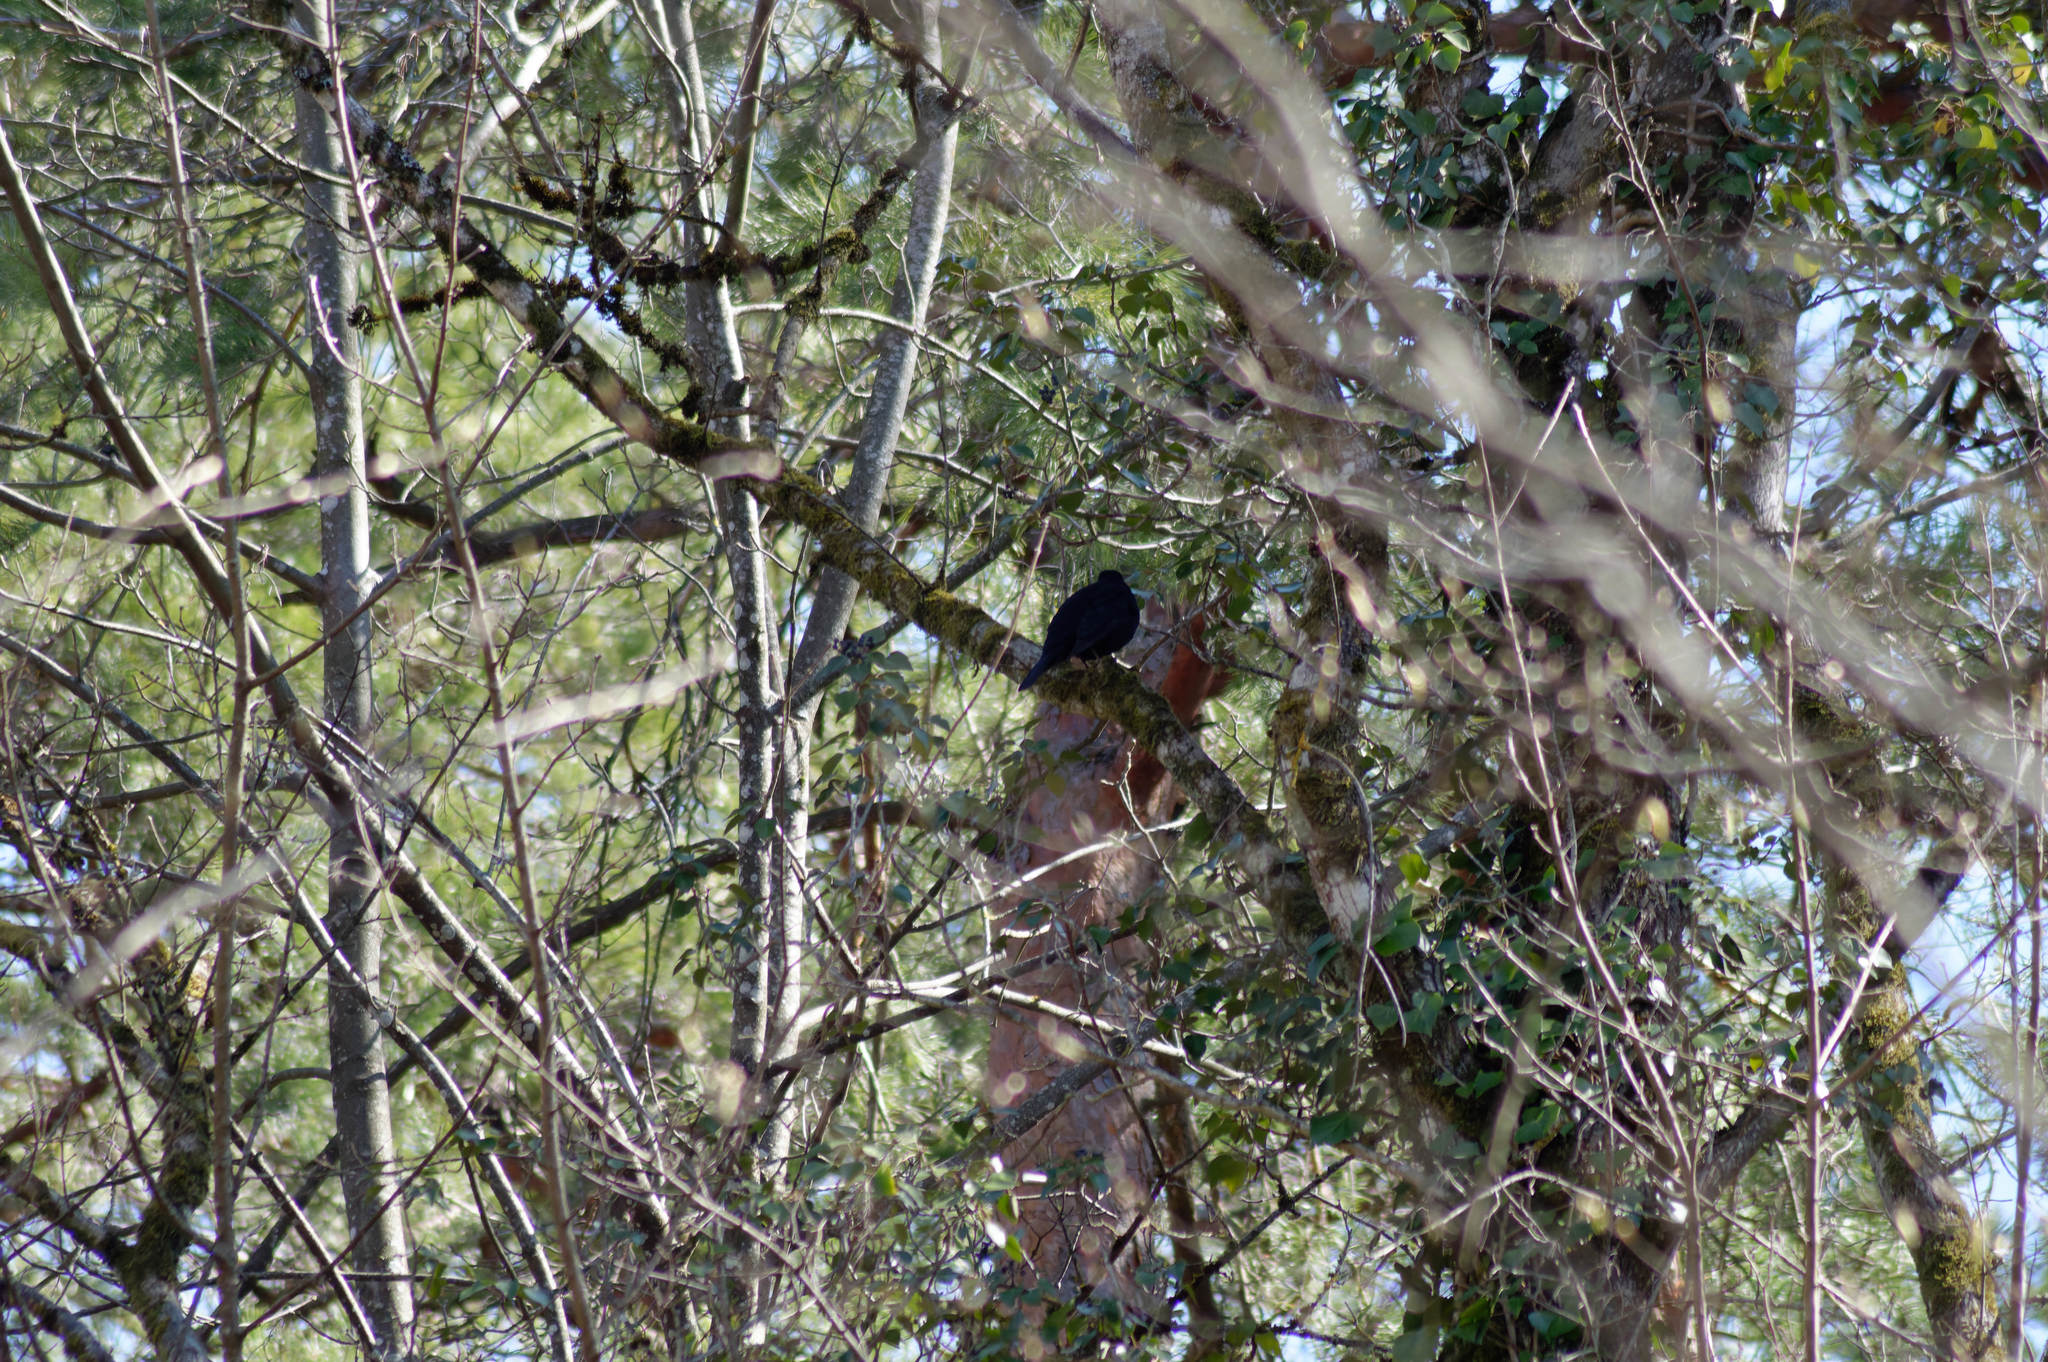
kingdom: Animalia
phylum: Chordata
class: Aves
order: Passeriformes
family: Turdidae
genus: Turdus
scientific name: Turdus merula
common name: Common blackbird
